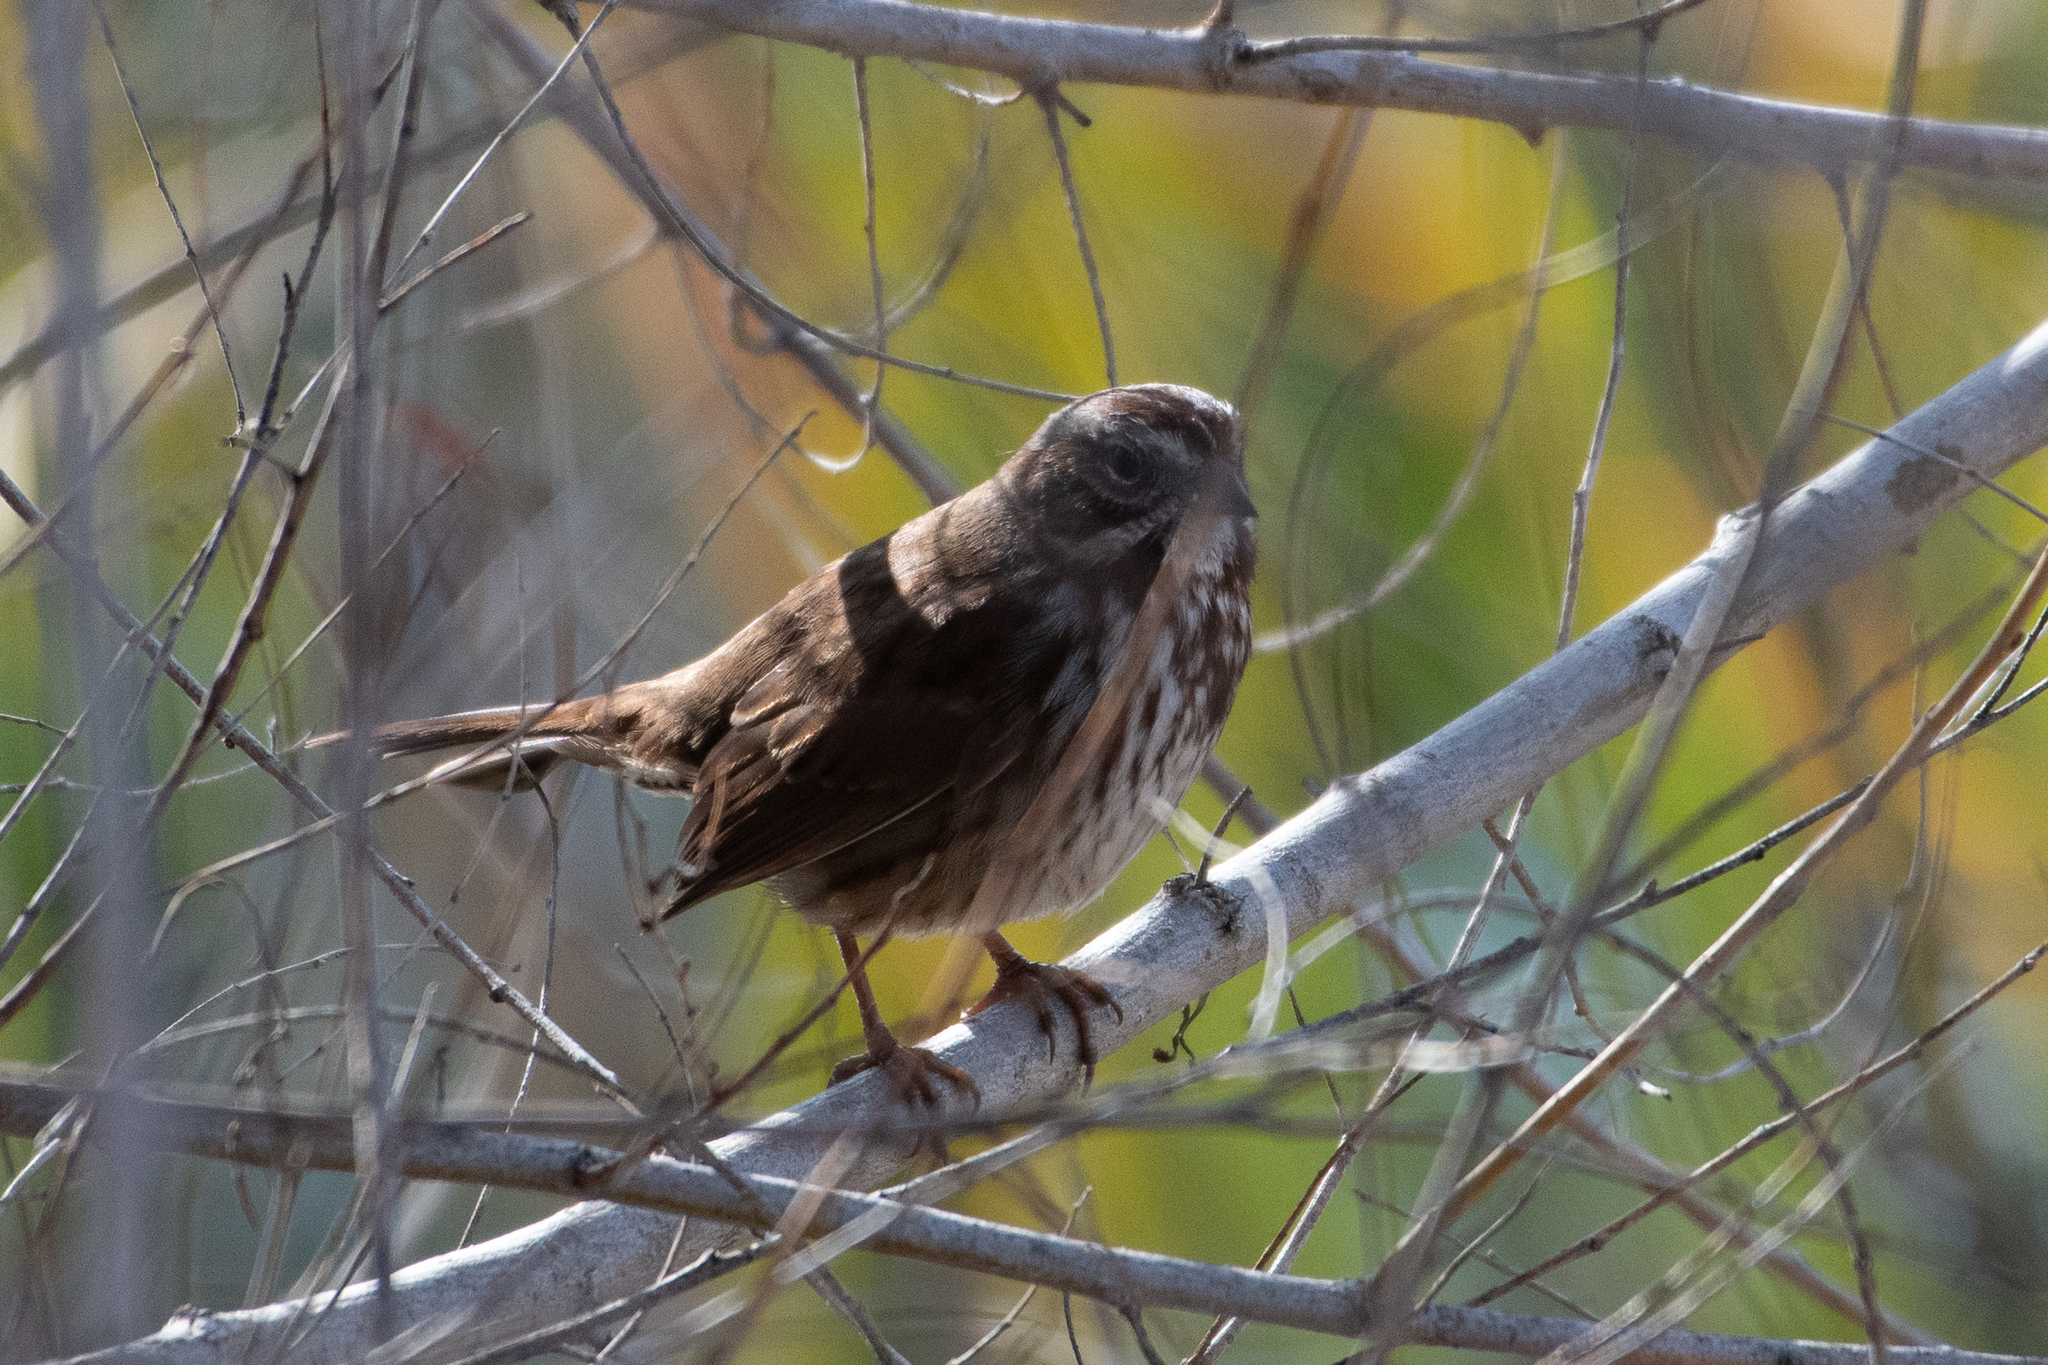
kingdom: Animalia
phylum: Chordata
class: Aves
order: Passeriformes
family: Passerellidae
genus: Melospiza
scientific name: Melospiza melodia
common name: Song sparrow
